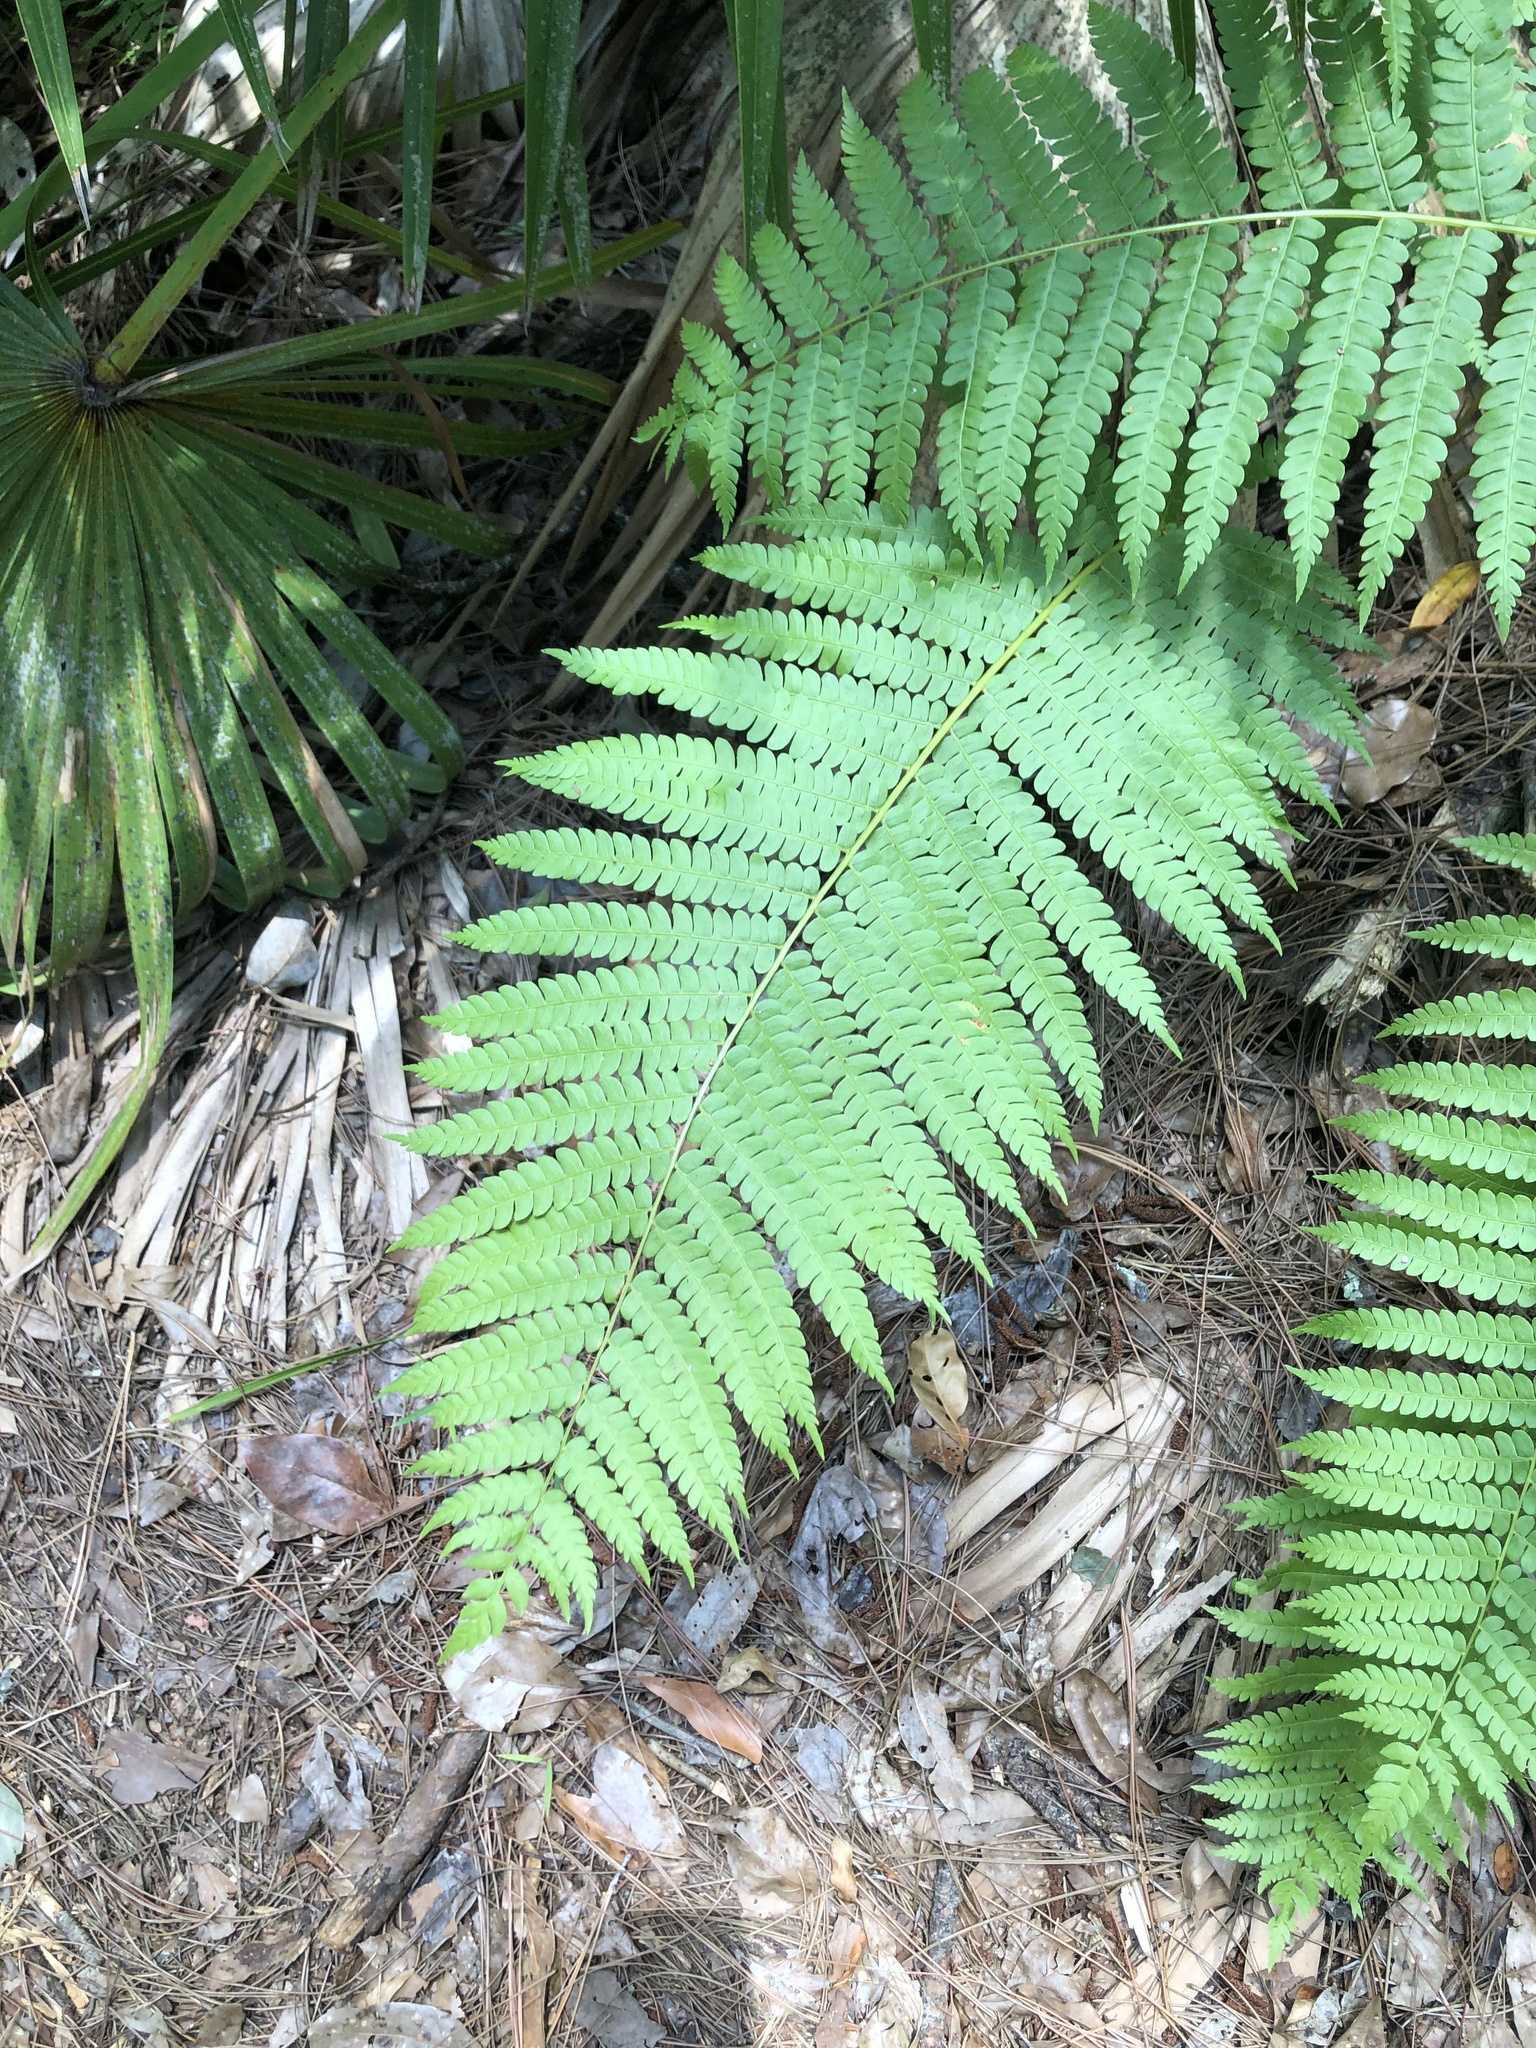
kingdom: Plantae
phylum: Tracheophyta
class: Polypodiopsida
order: Osmundales
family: Osmundaceae
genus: Osmundastrum
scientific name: Osmundastrum cinnamomeum
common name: Cinnamon fern
